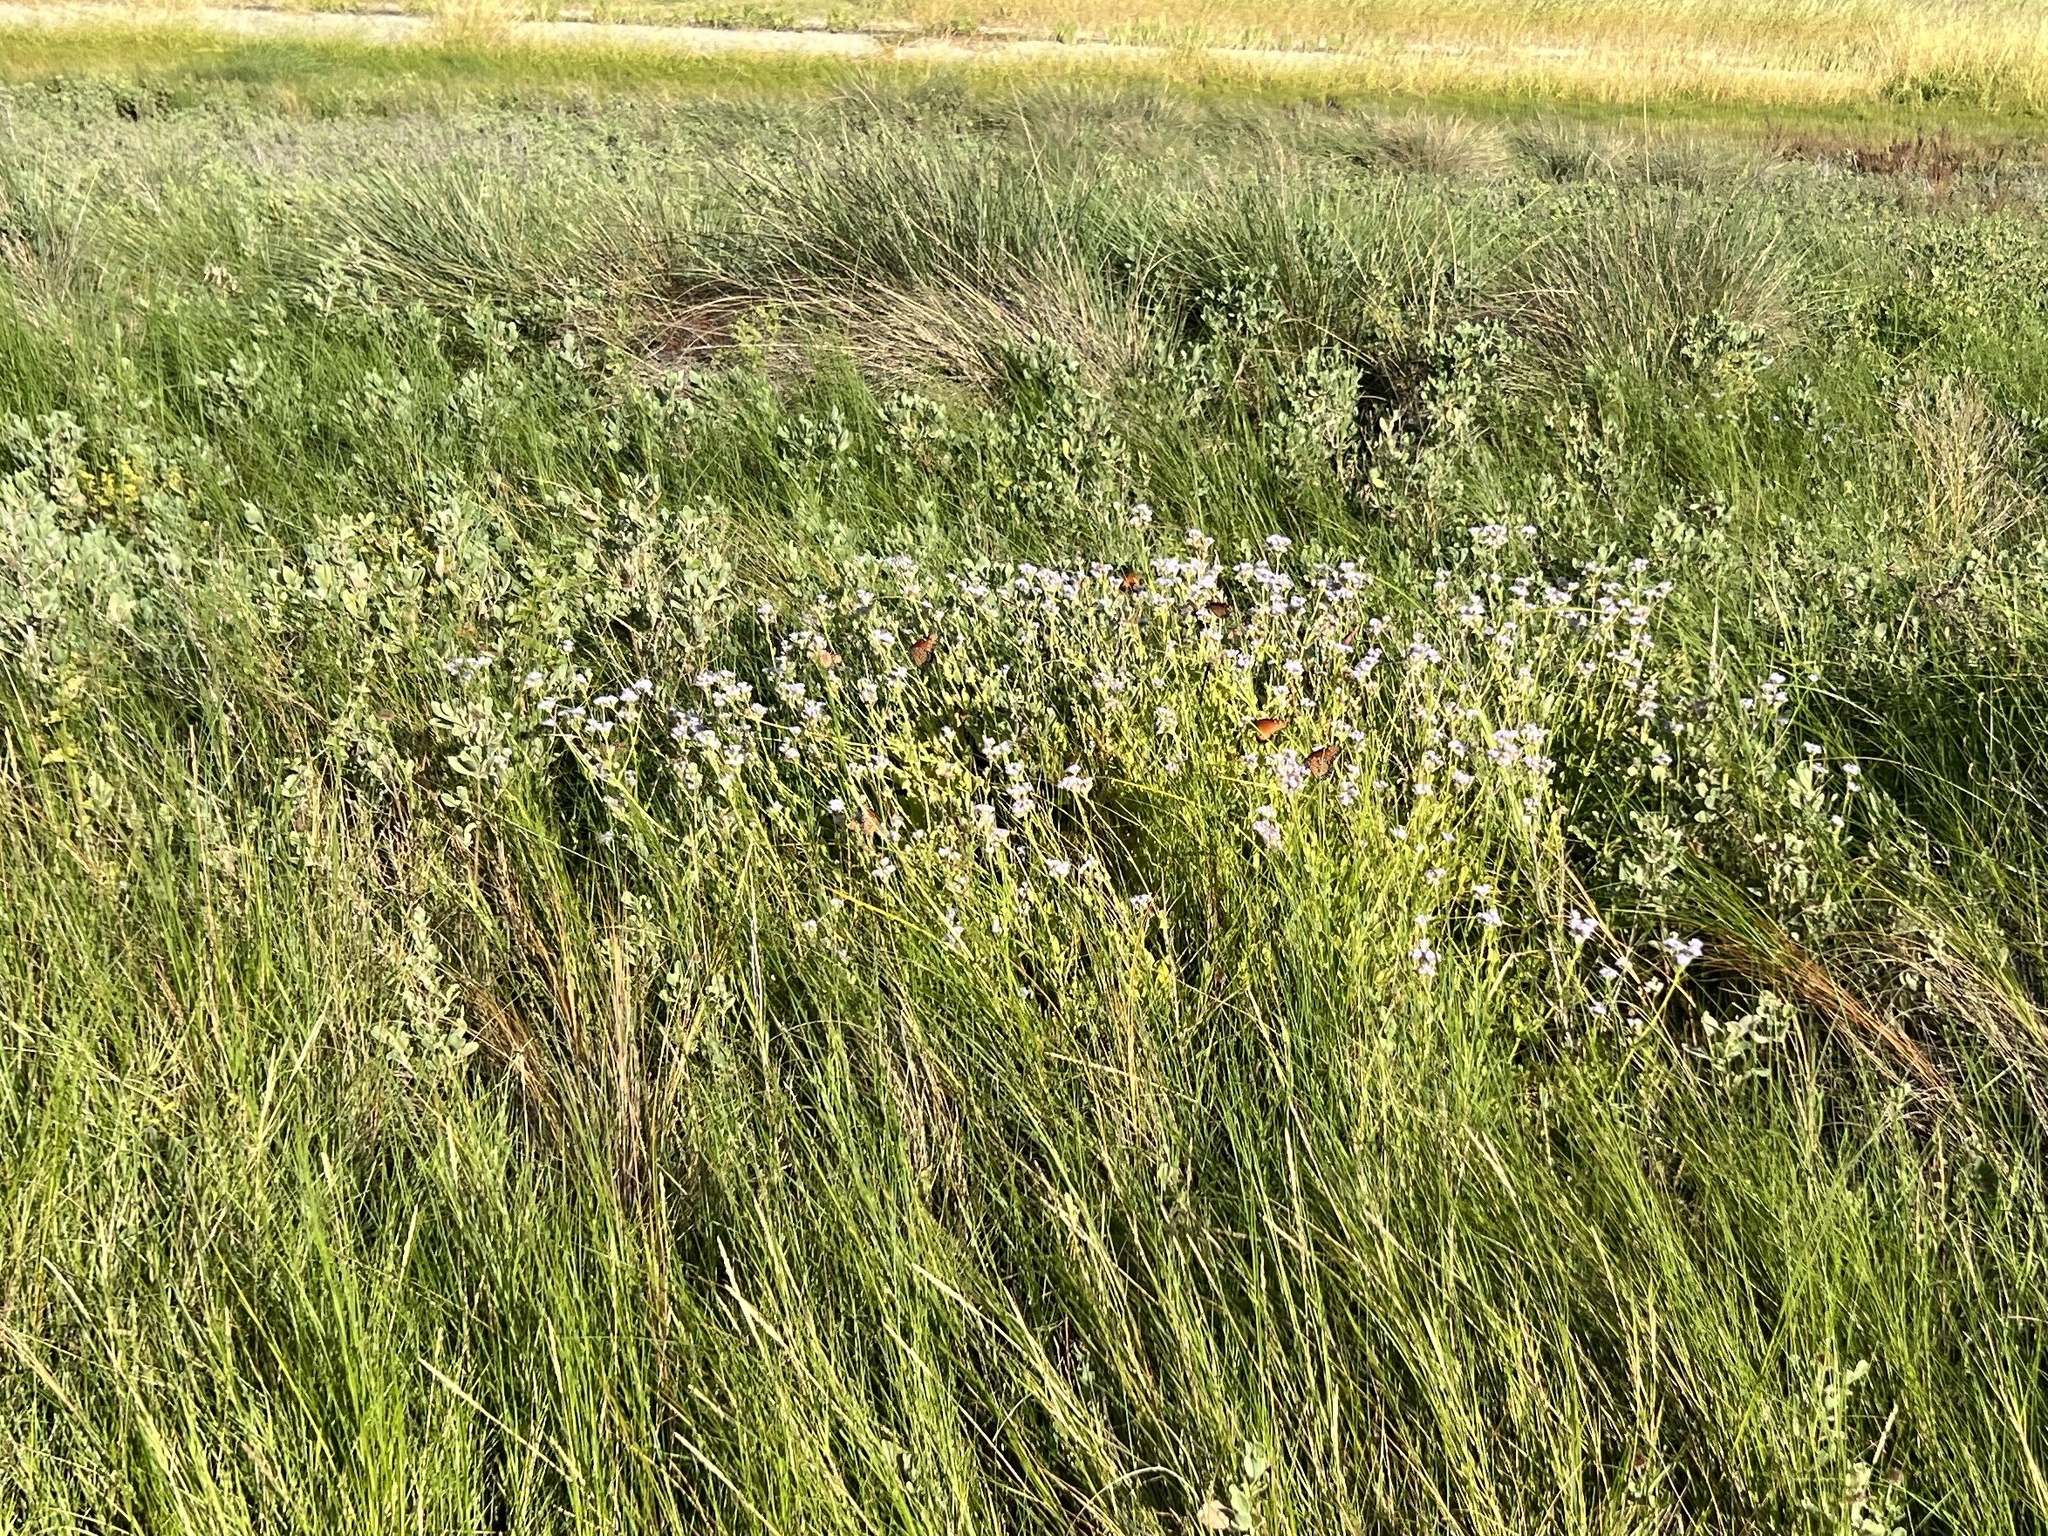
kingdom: Plantae
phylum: Tracheophyta
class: Magnoliopsida
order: Asterales
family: Asteraceae
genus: Conoclinium
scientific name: Conoclinium betonicifolium
